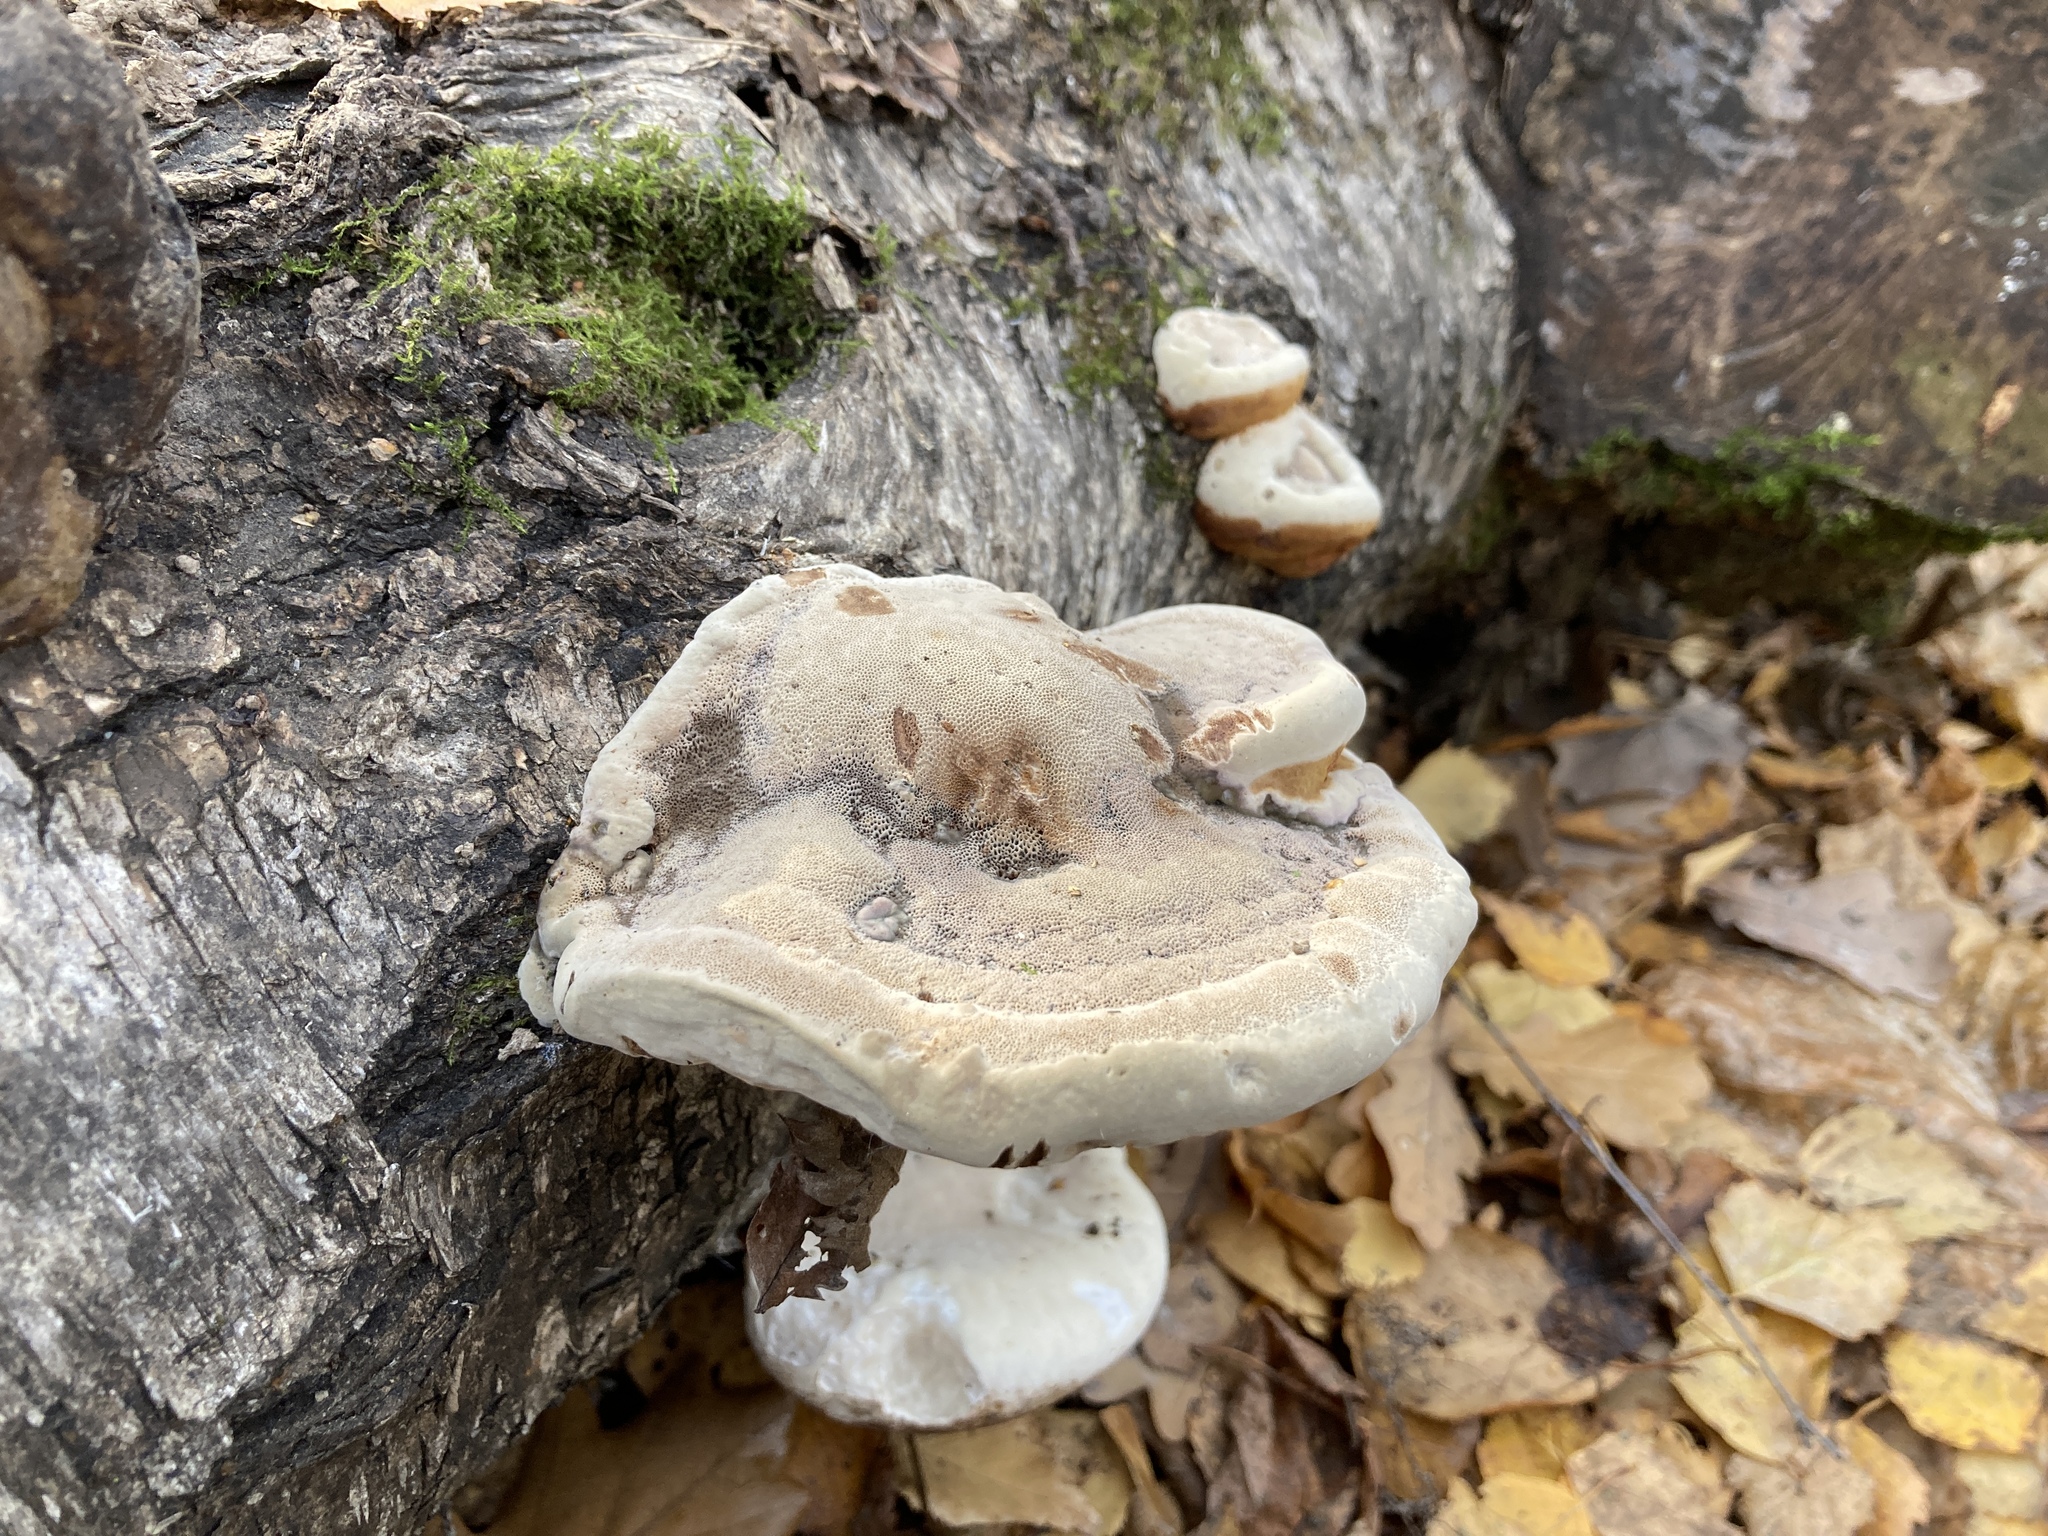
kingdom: Fungi
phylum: Basidiomycota
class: Agaricomycetes
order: Polyporales
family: Fomitopsidaceae
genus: Fomitopsis
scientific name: Fomitopsis pinicola
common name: Red-belted bracket
